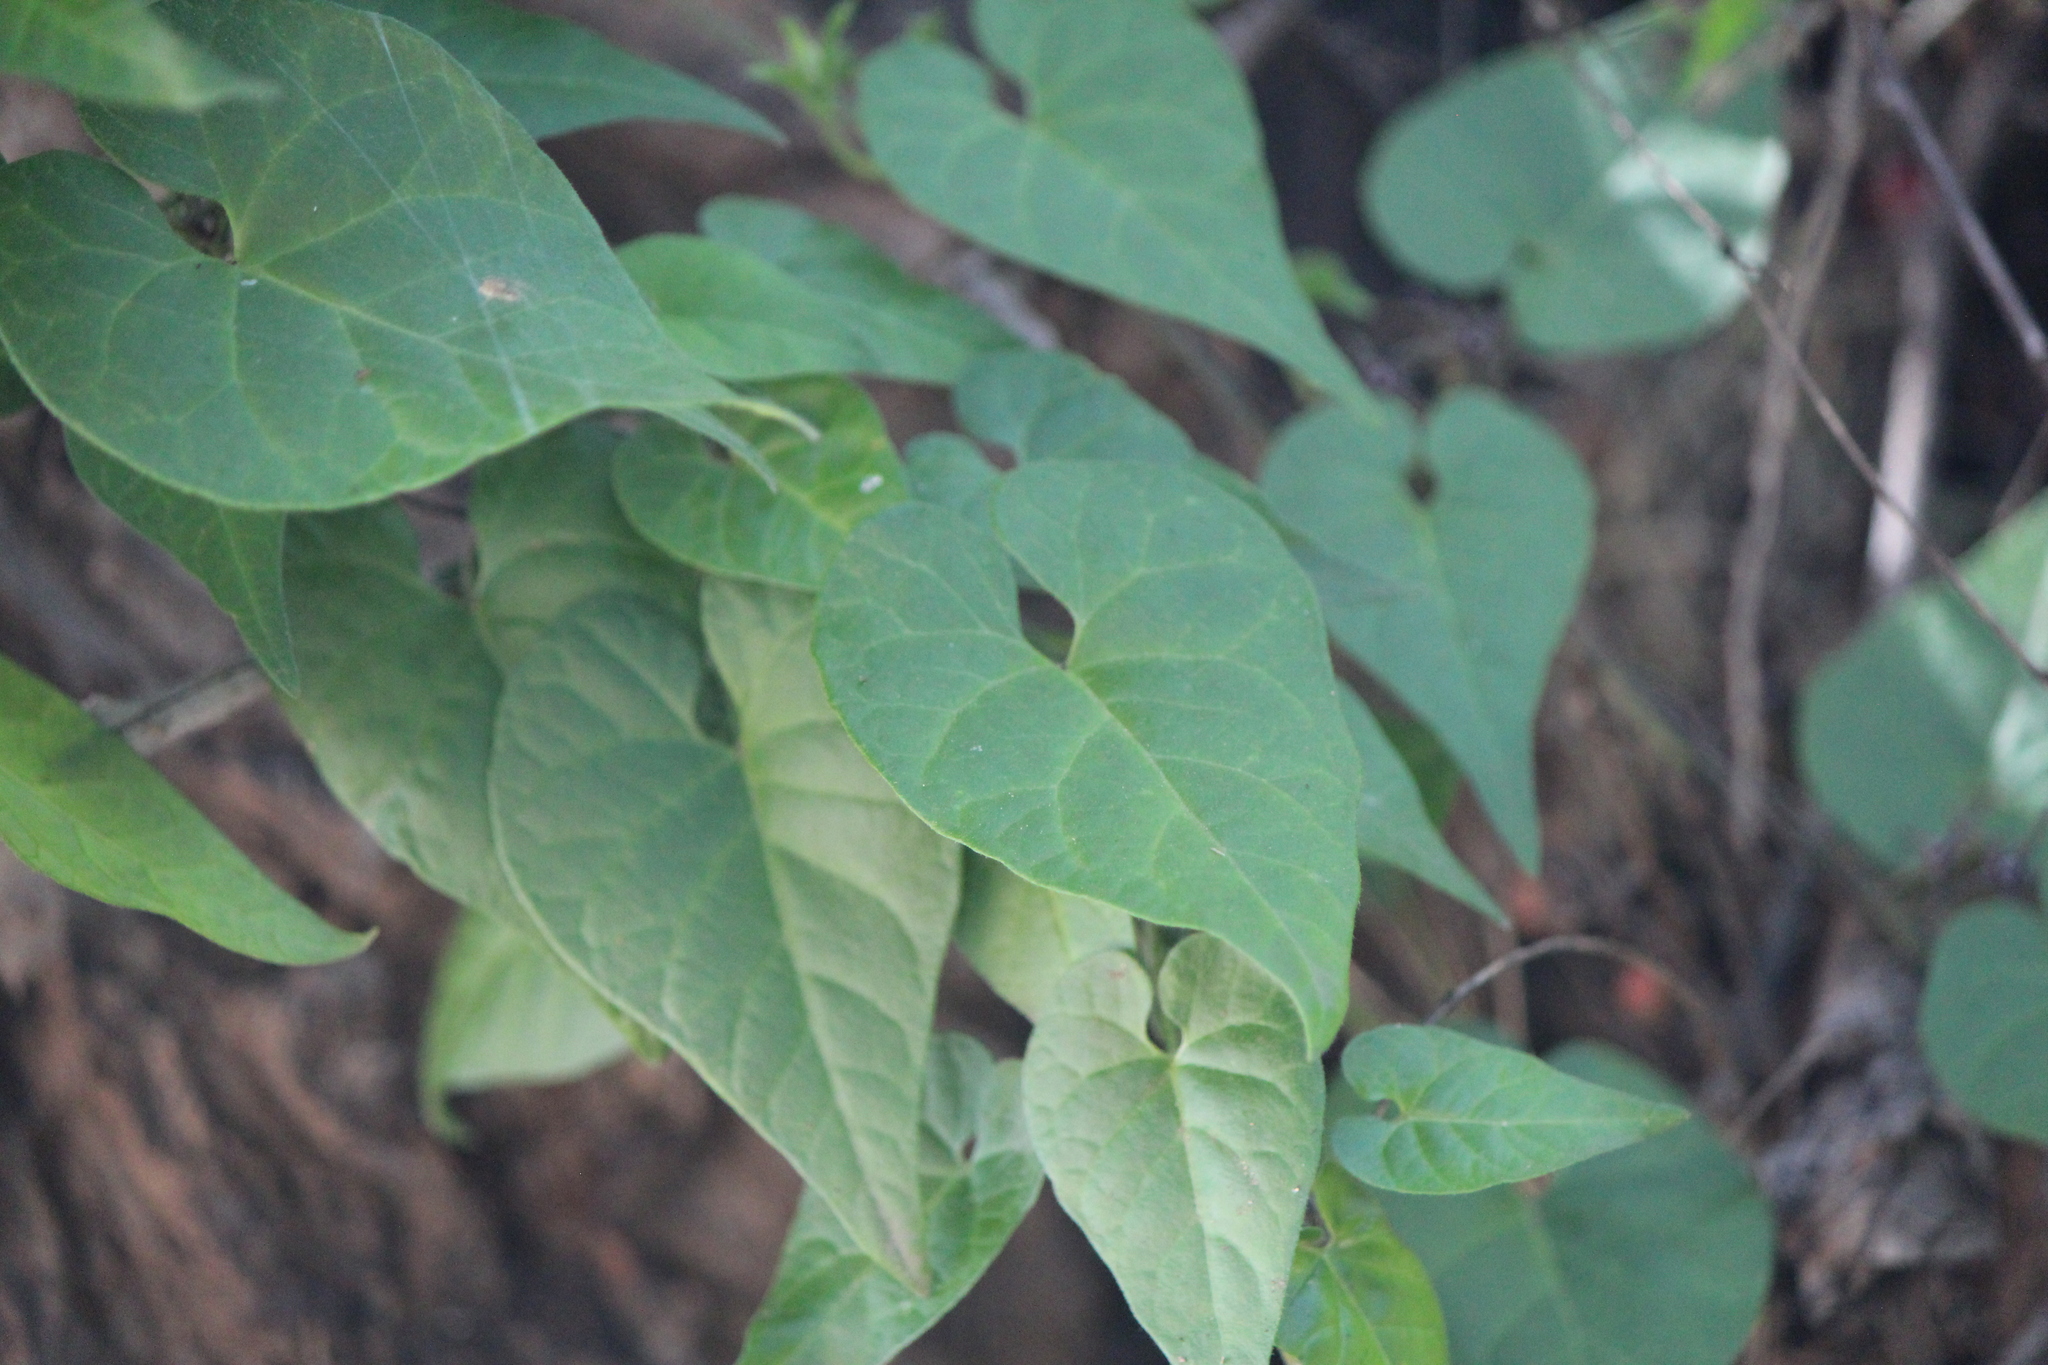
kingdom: Plantae
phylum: Tracheophyta
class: Magnoliopsida
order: Gentianales
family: Apocynaceae
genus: Chthamalia
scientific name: Chthamalia ojadapantha
